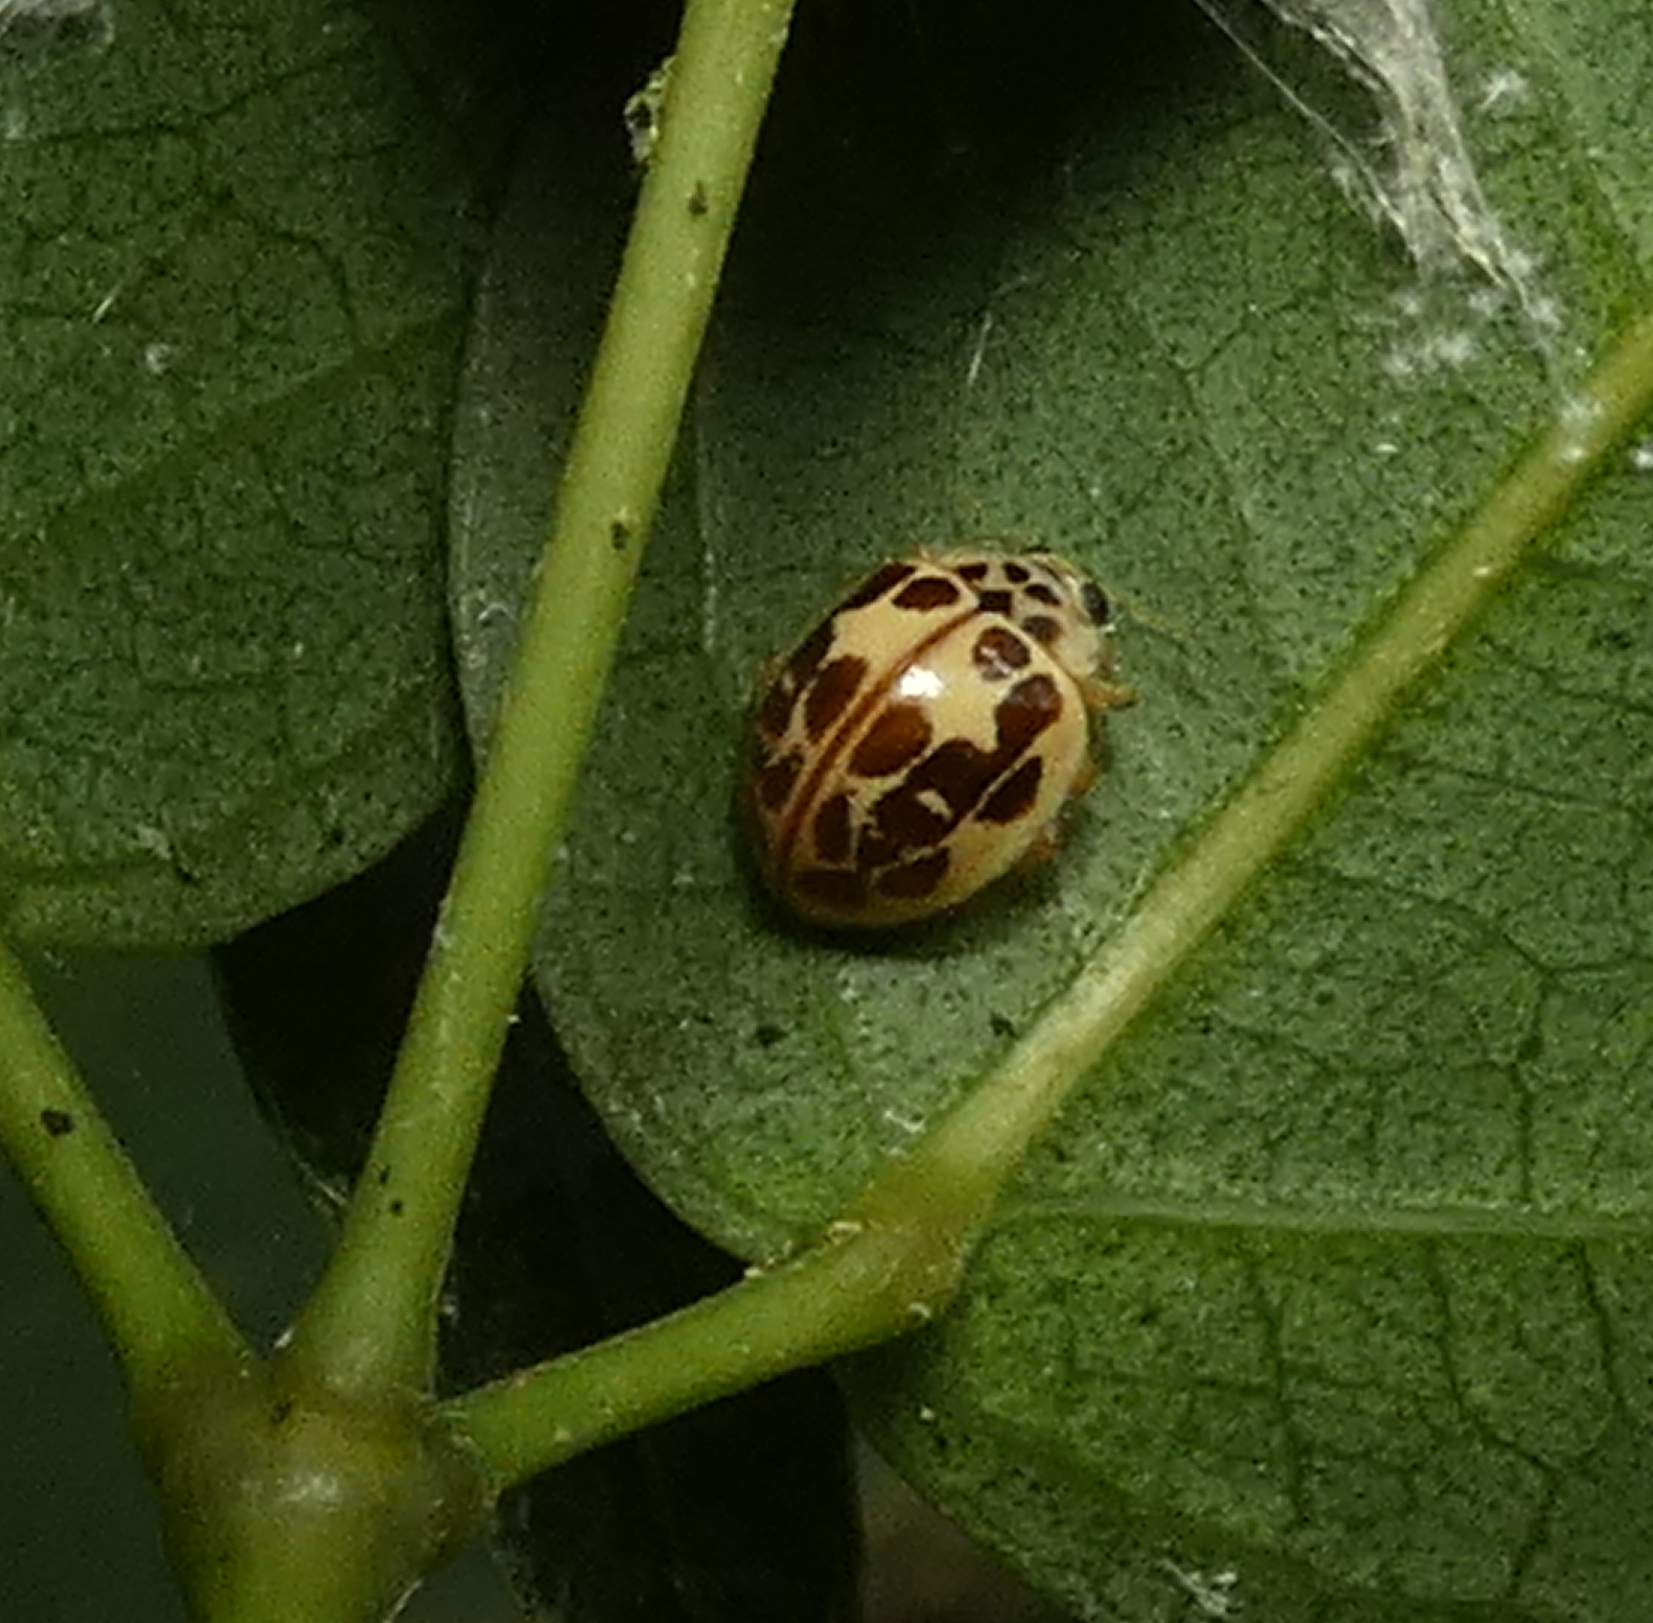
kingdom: Animalia
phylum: Arthropoda
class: Insecta
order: Coleoptera
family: Coccinellidae
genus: Psyllobora
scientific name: Psyllobora confluens
